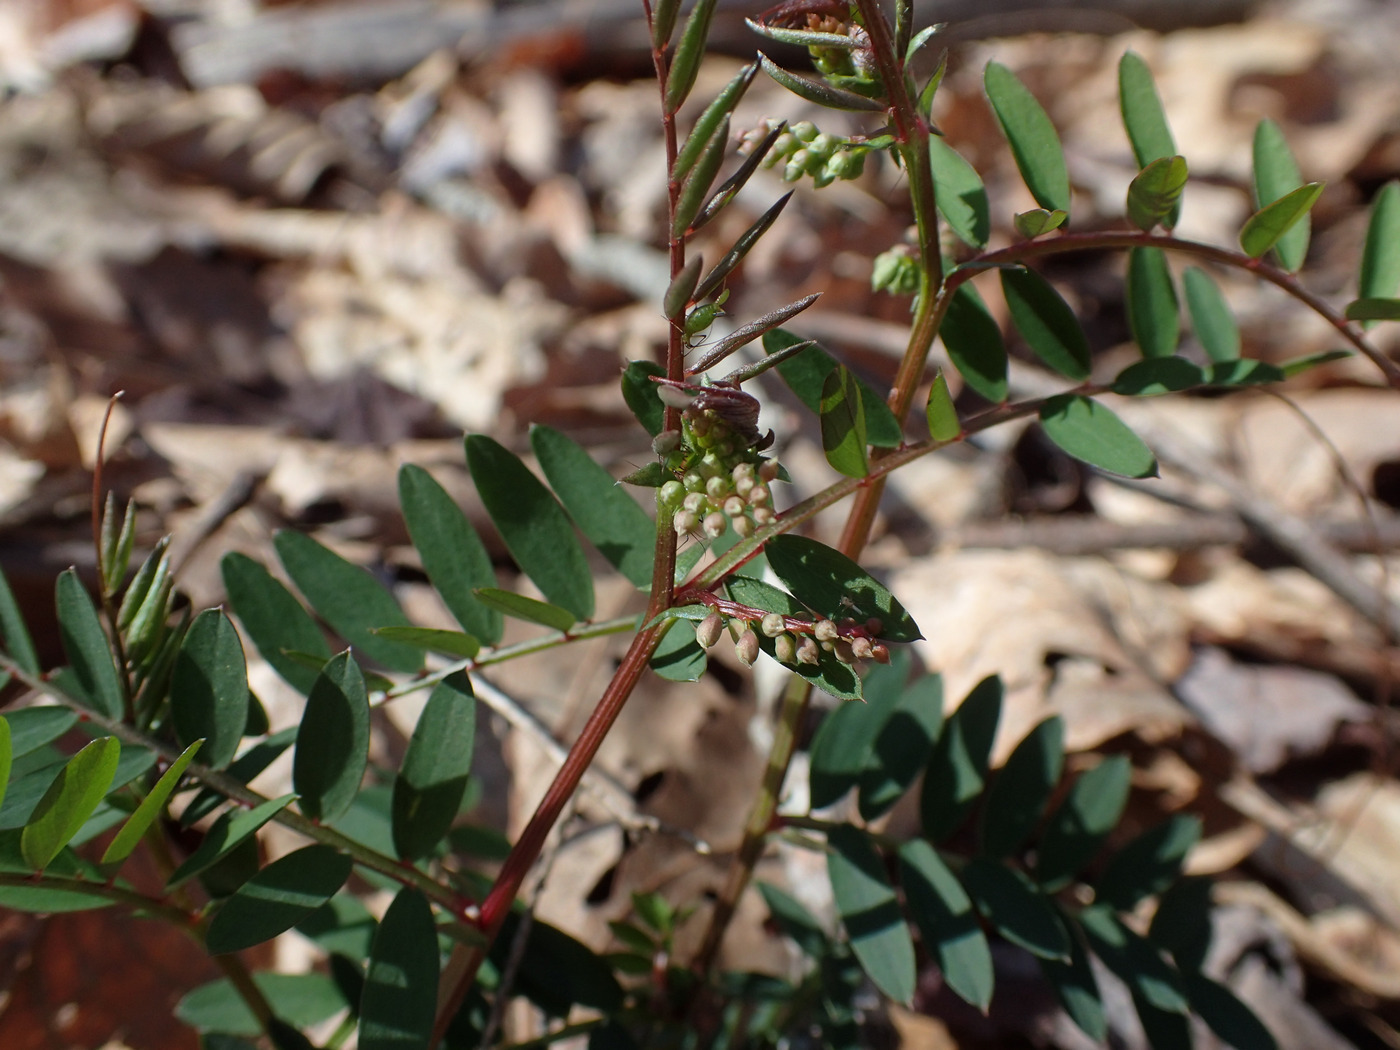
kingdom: Plantae
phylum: Tracheophyta
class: Magnoliopsida
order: Fabales
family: Fabaceae
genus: Vicia
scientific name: Vicia caroliniana
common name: Carolina vetch
